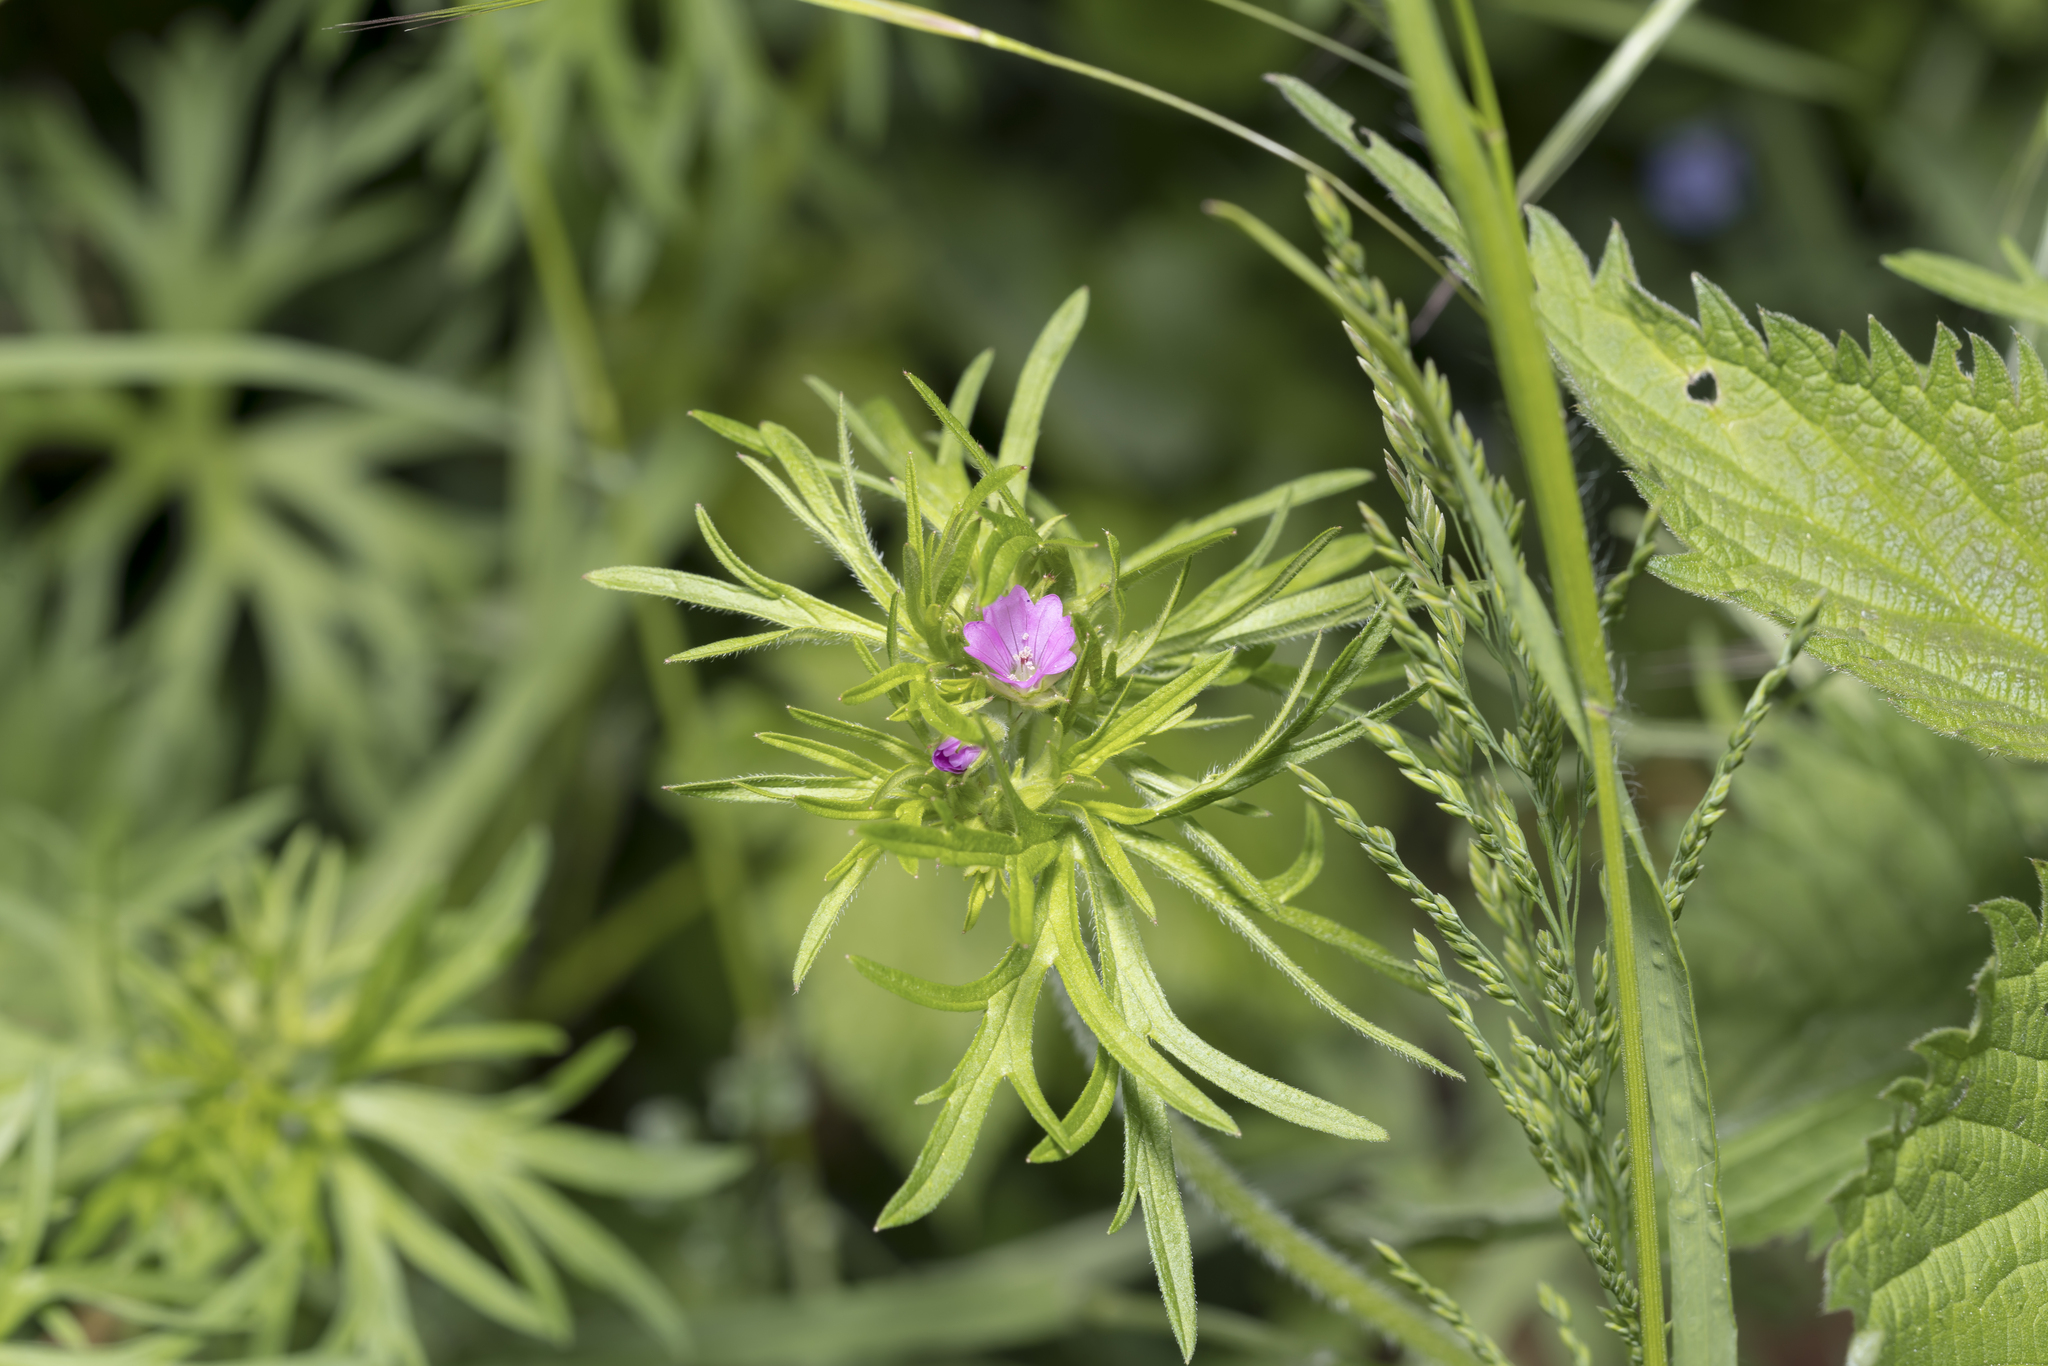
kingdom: Plantae
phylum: Tracheophyta
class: Magnoliopsida
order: Geraniales
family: Geraniaceae
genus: Geranium
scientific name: Geranium dissectum
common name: Cut-leaved crane's-bill
